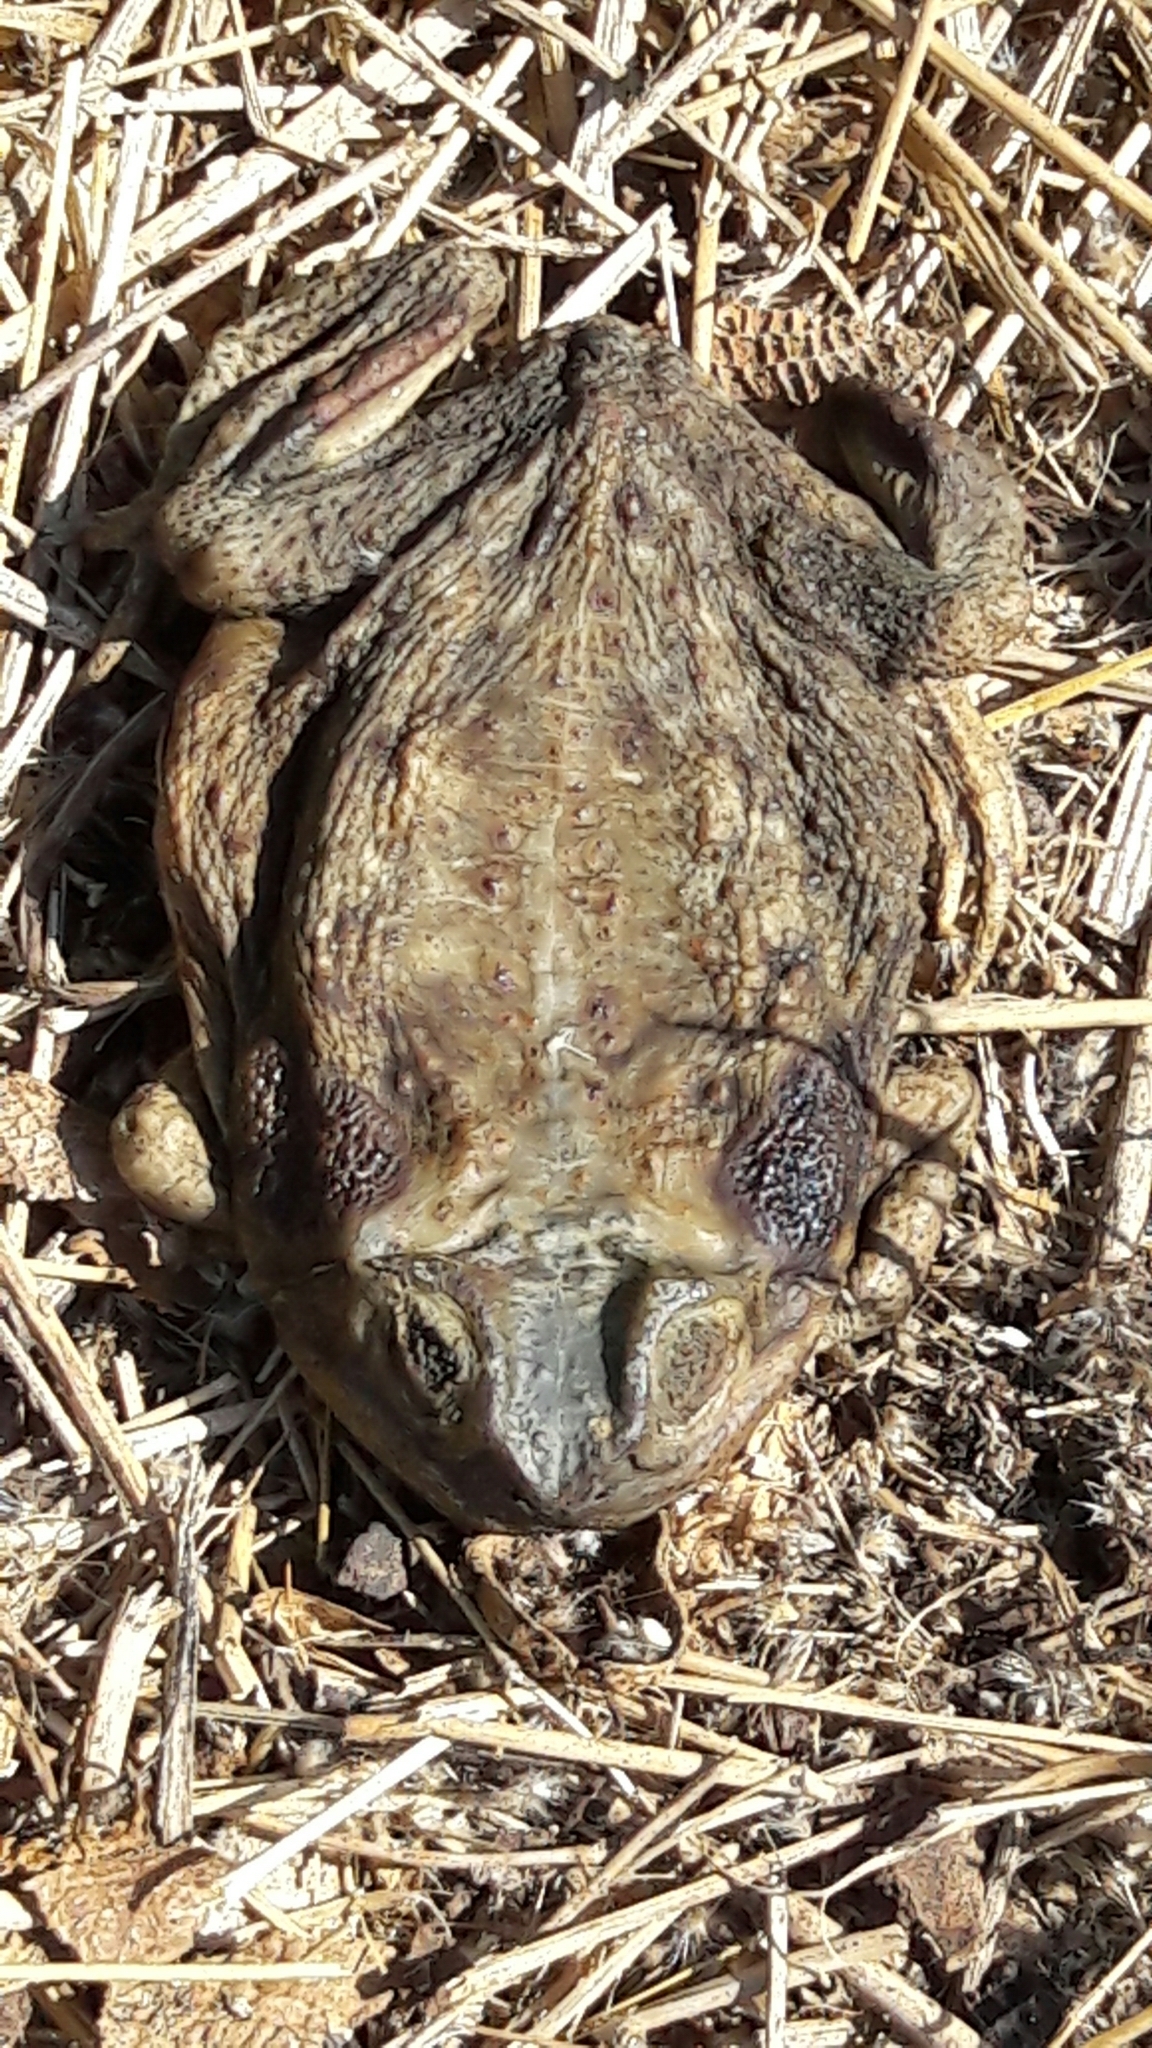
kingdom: Animalia
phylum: Chordata
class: Amphibia
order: Anura
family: Bufonidae
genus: Rhinella
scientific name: Rhinella diptycha
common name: Cope's toad
